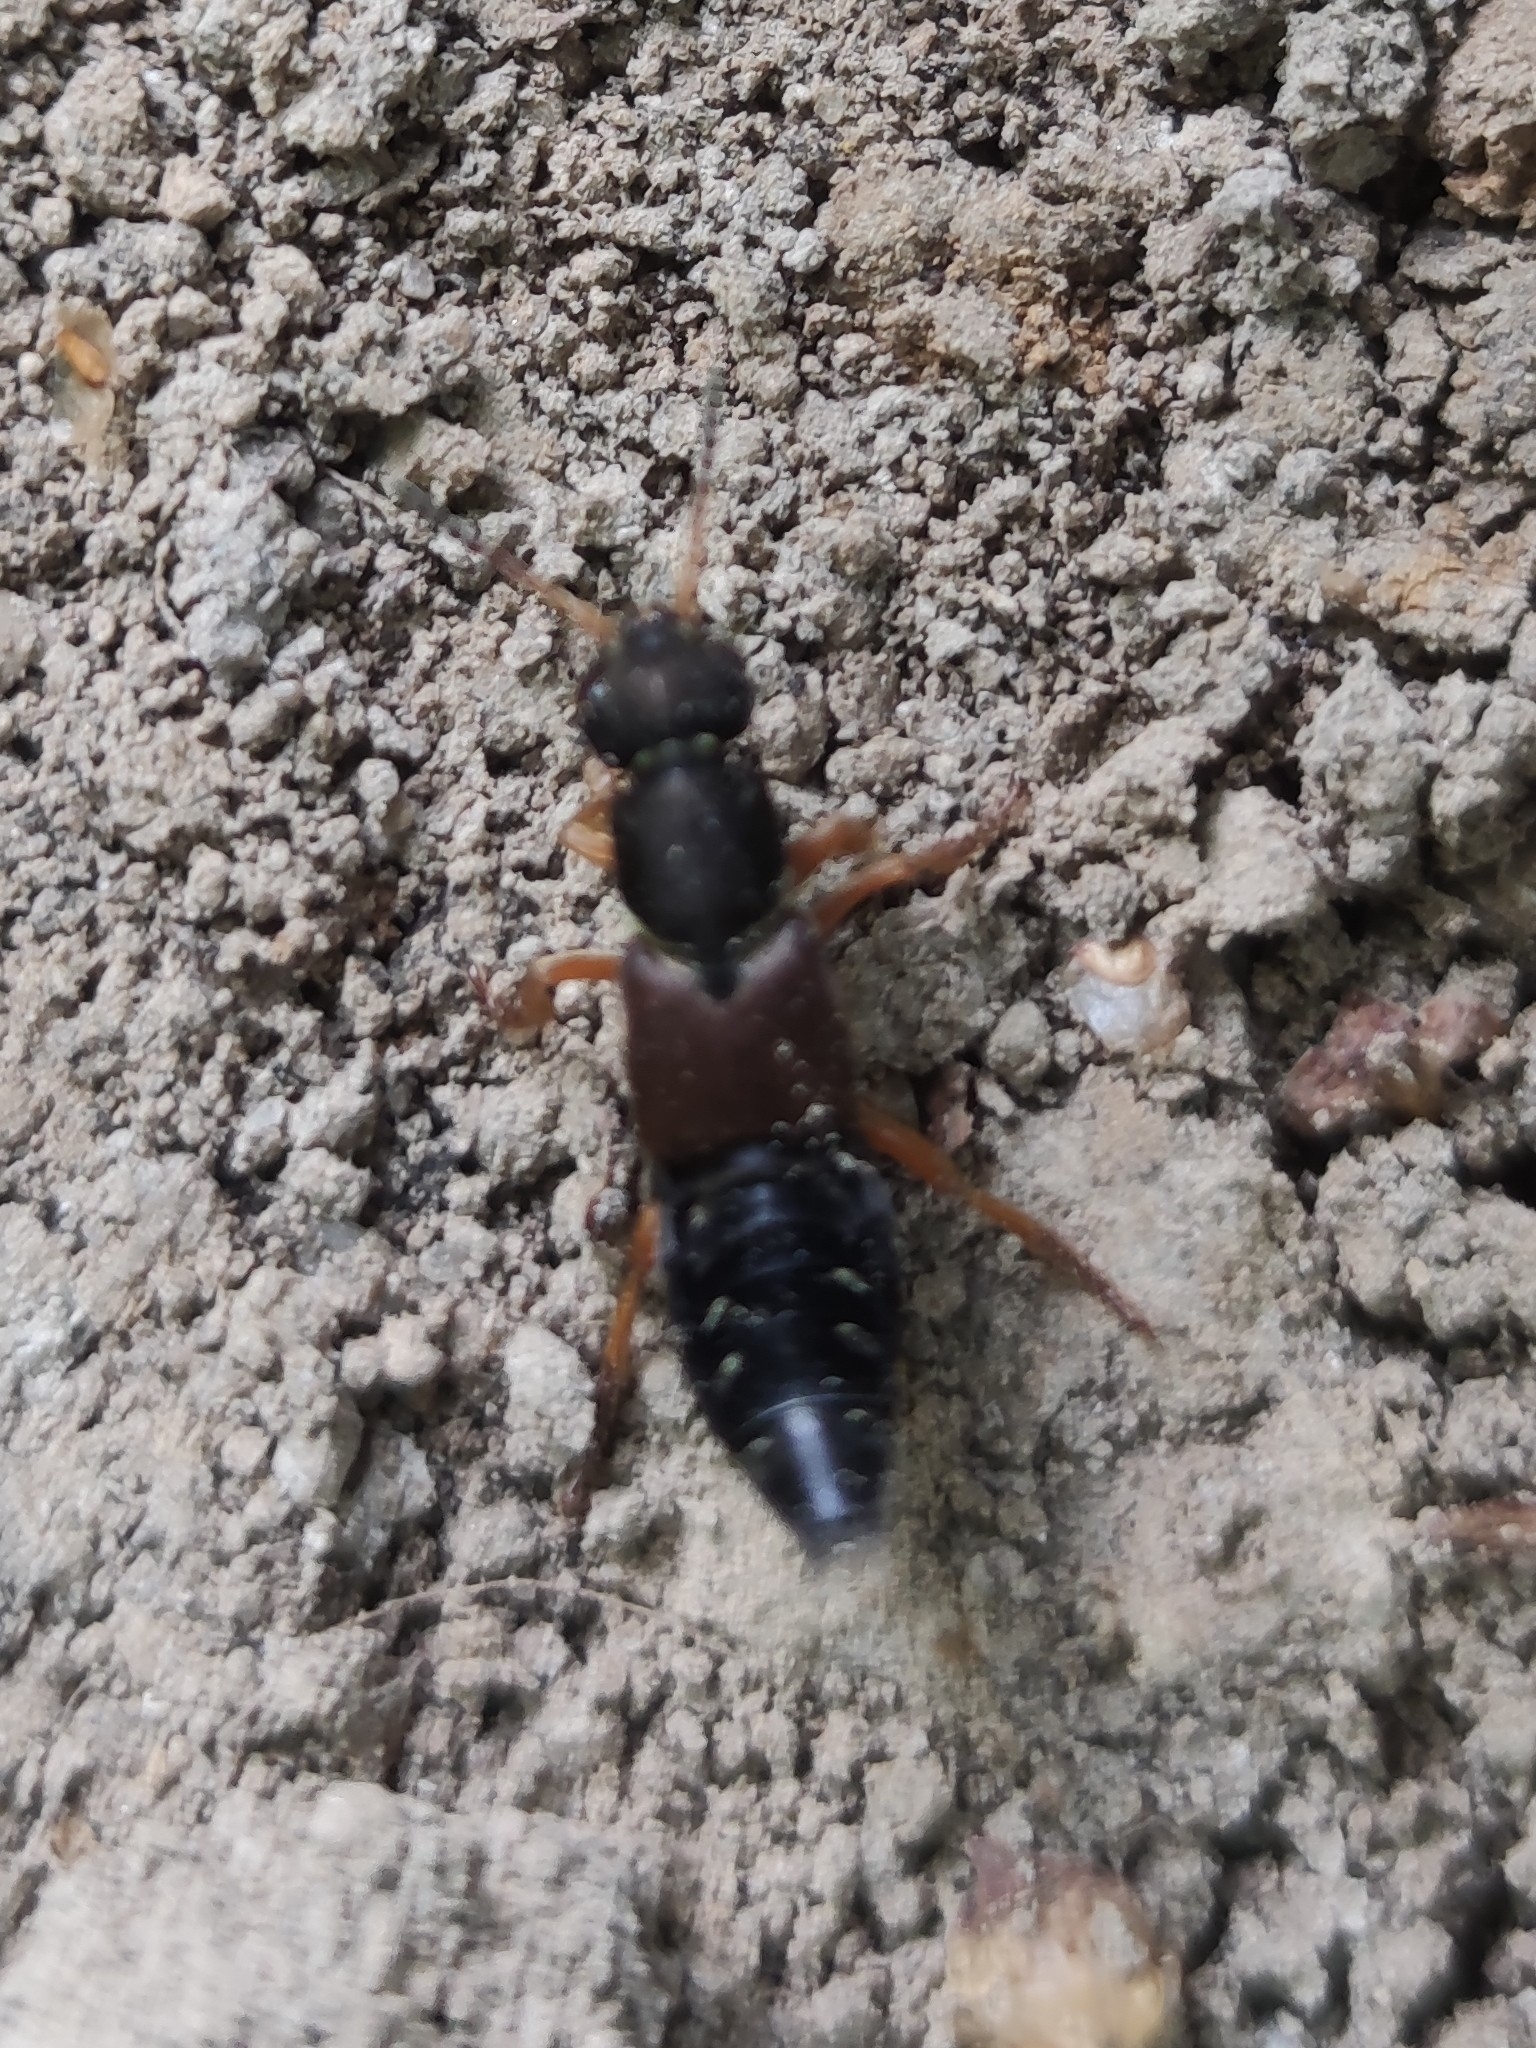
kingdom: Animalia
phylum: Arthropoda
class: Insecta
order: Coleoptera
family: Staphylinidae
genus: Staphylinus
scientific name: Staphylinus dimidiaticornis
